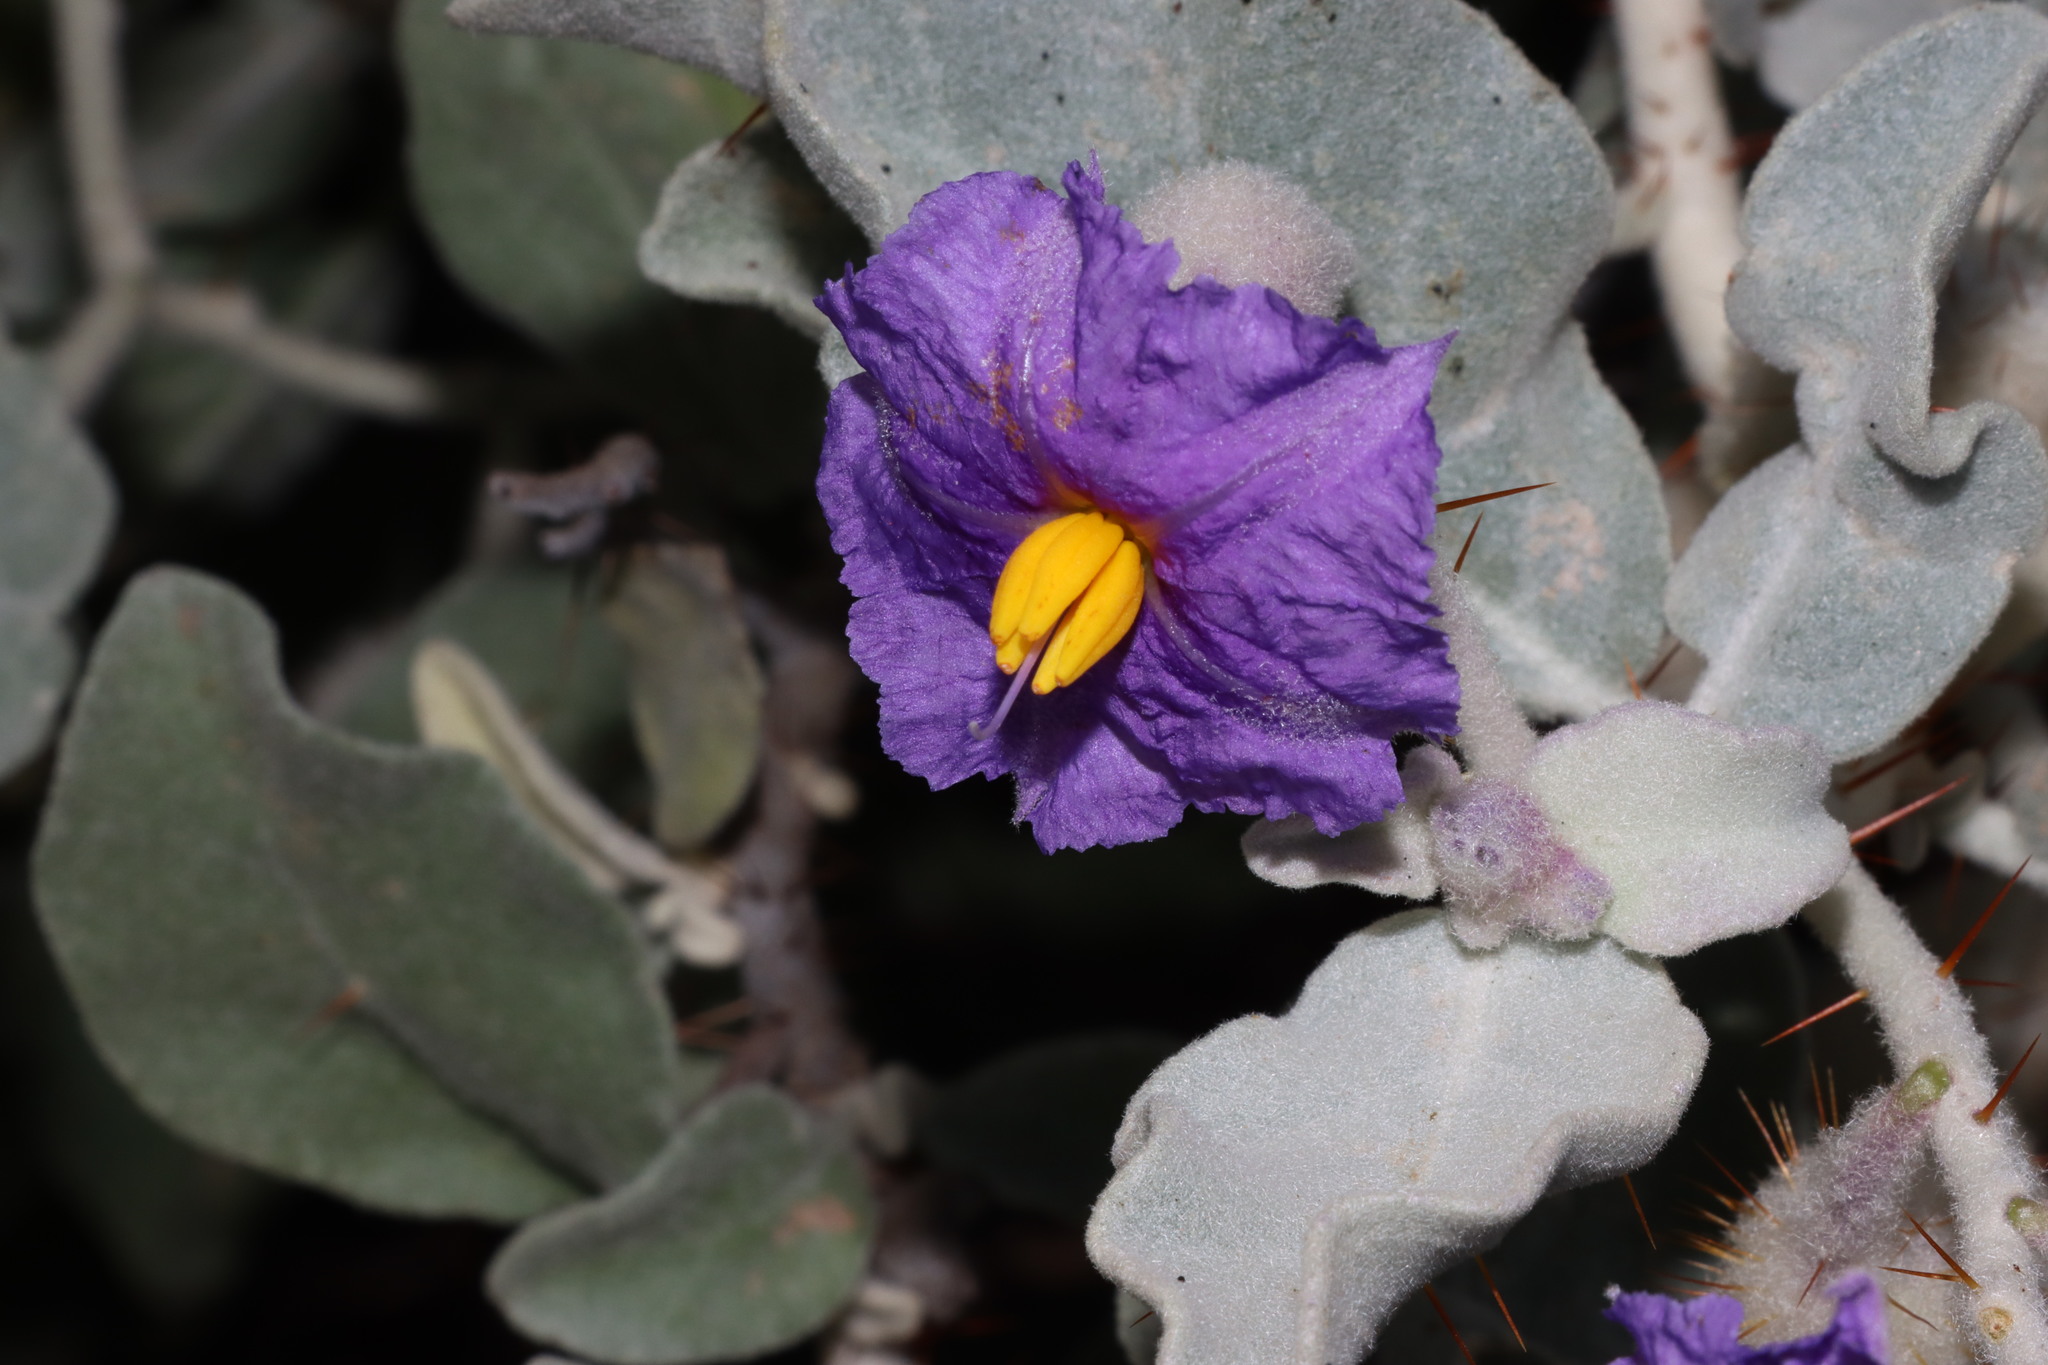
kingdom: Plantae
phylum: Tracheophyta
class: Magnoliopsida
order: Solanales
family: Solanaceae
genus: Solanum
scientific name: Solanum lasiophyllum
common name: Flannelbush
